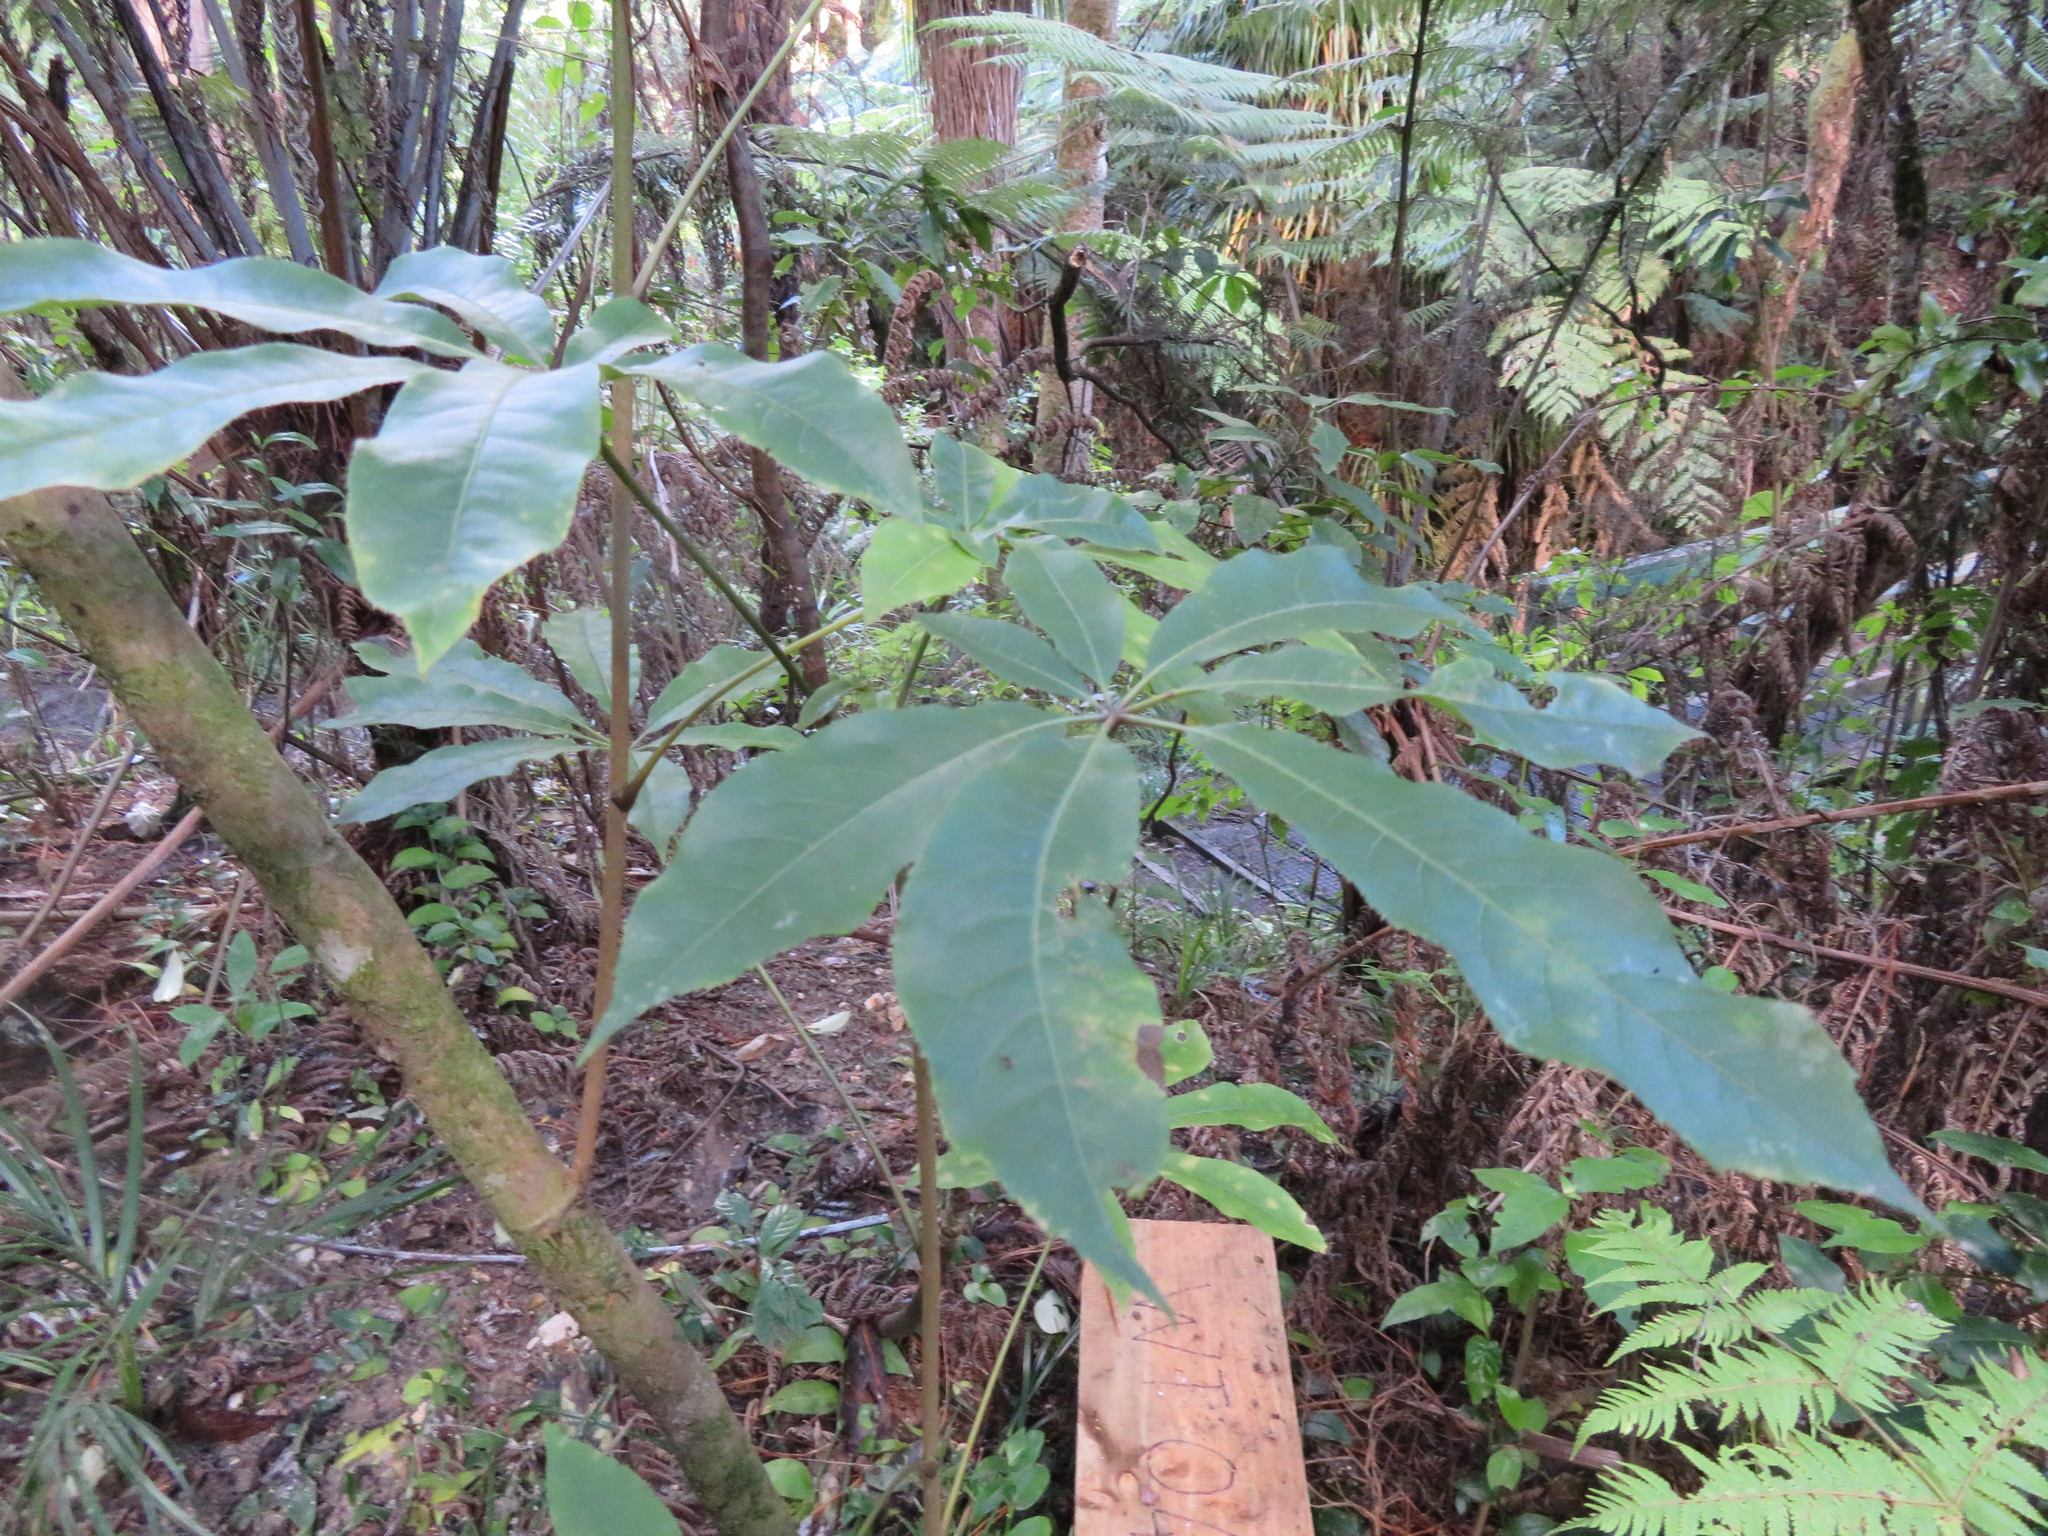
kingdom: Plantae
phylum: Tracheophyta
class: Magnoliopsida
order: Apiales
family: Araliaceae
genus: Schefflera
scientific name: Schefflera digitata
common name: Pate
